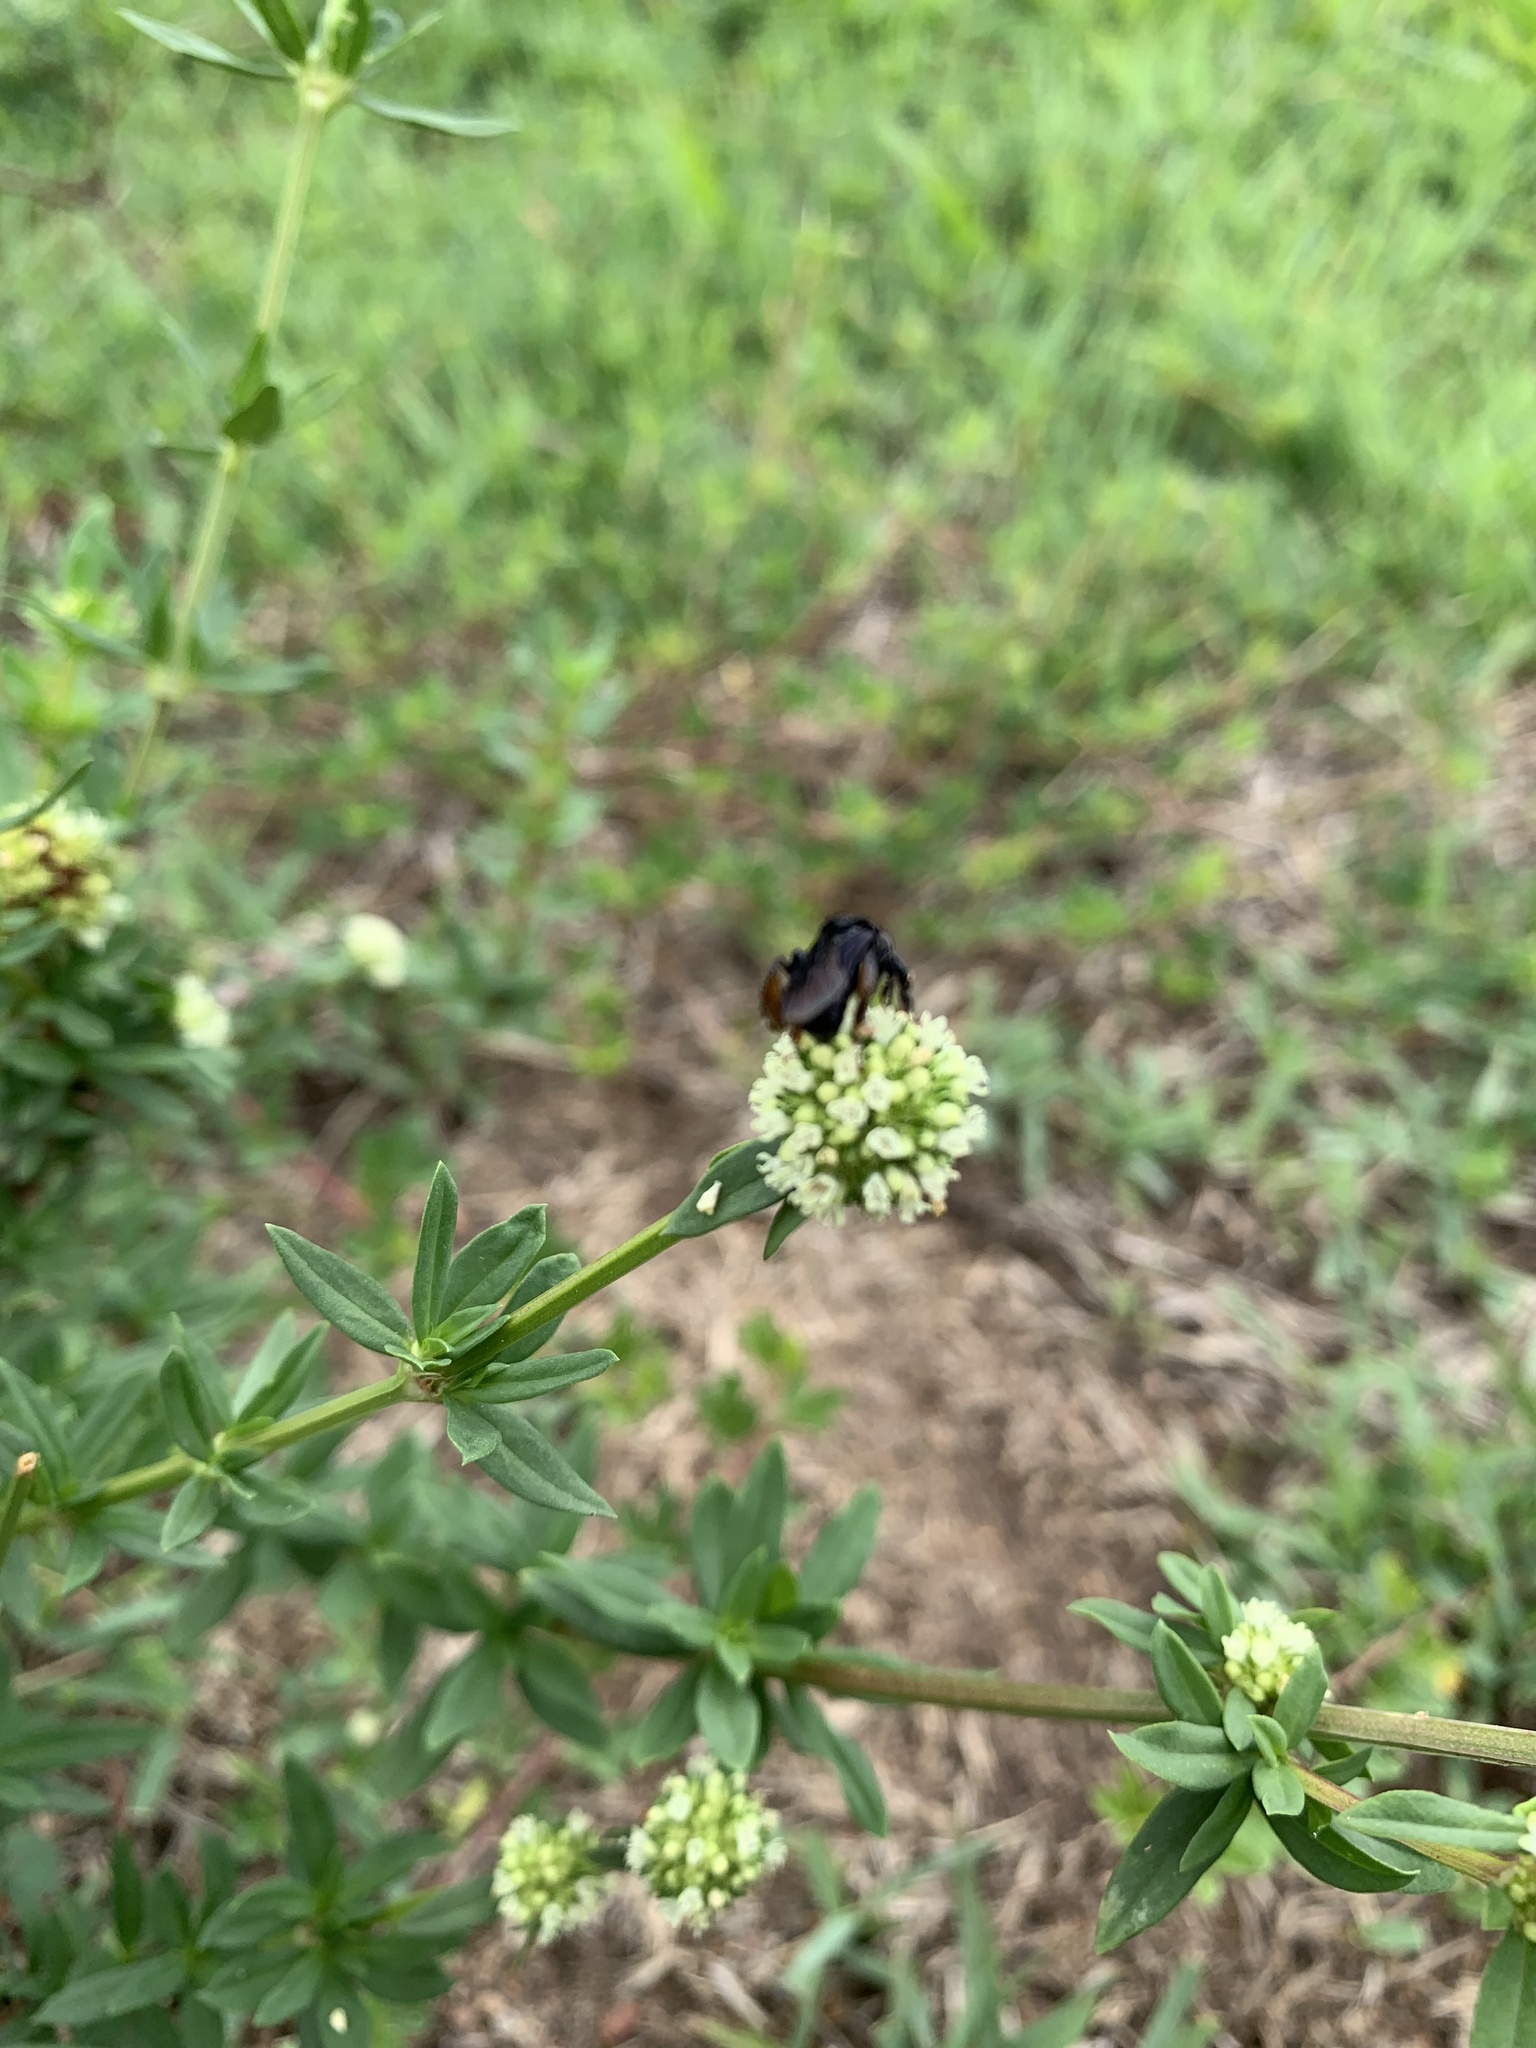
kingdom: Animalia
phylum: Arthropoda
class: Insecta
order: Hymenoptera
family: Apidae
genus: Trigona
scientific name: Trigona spinipes
